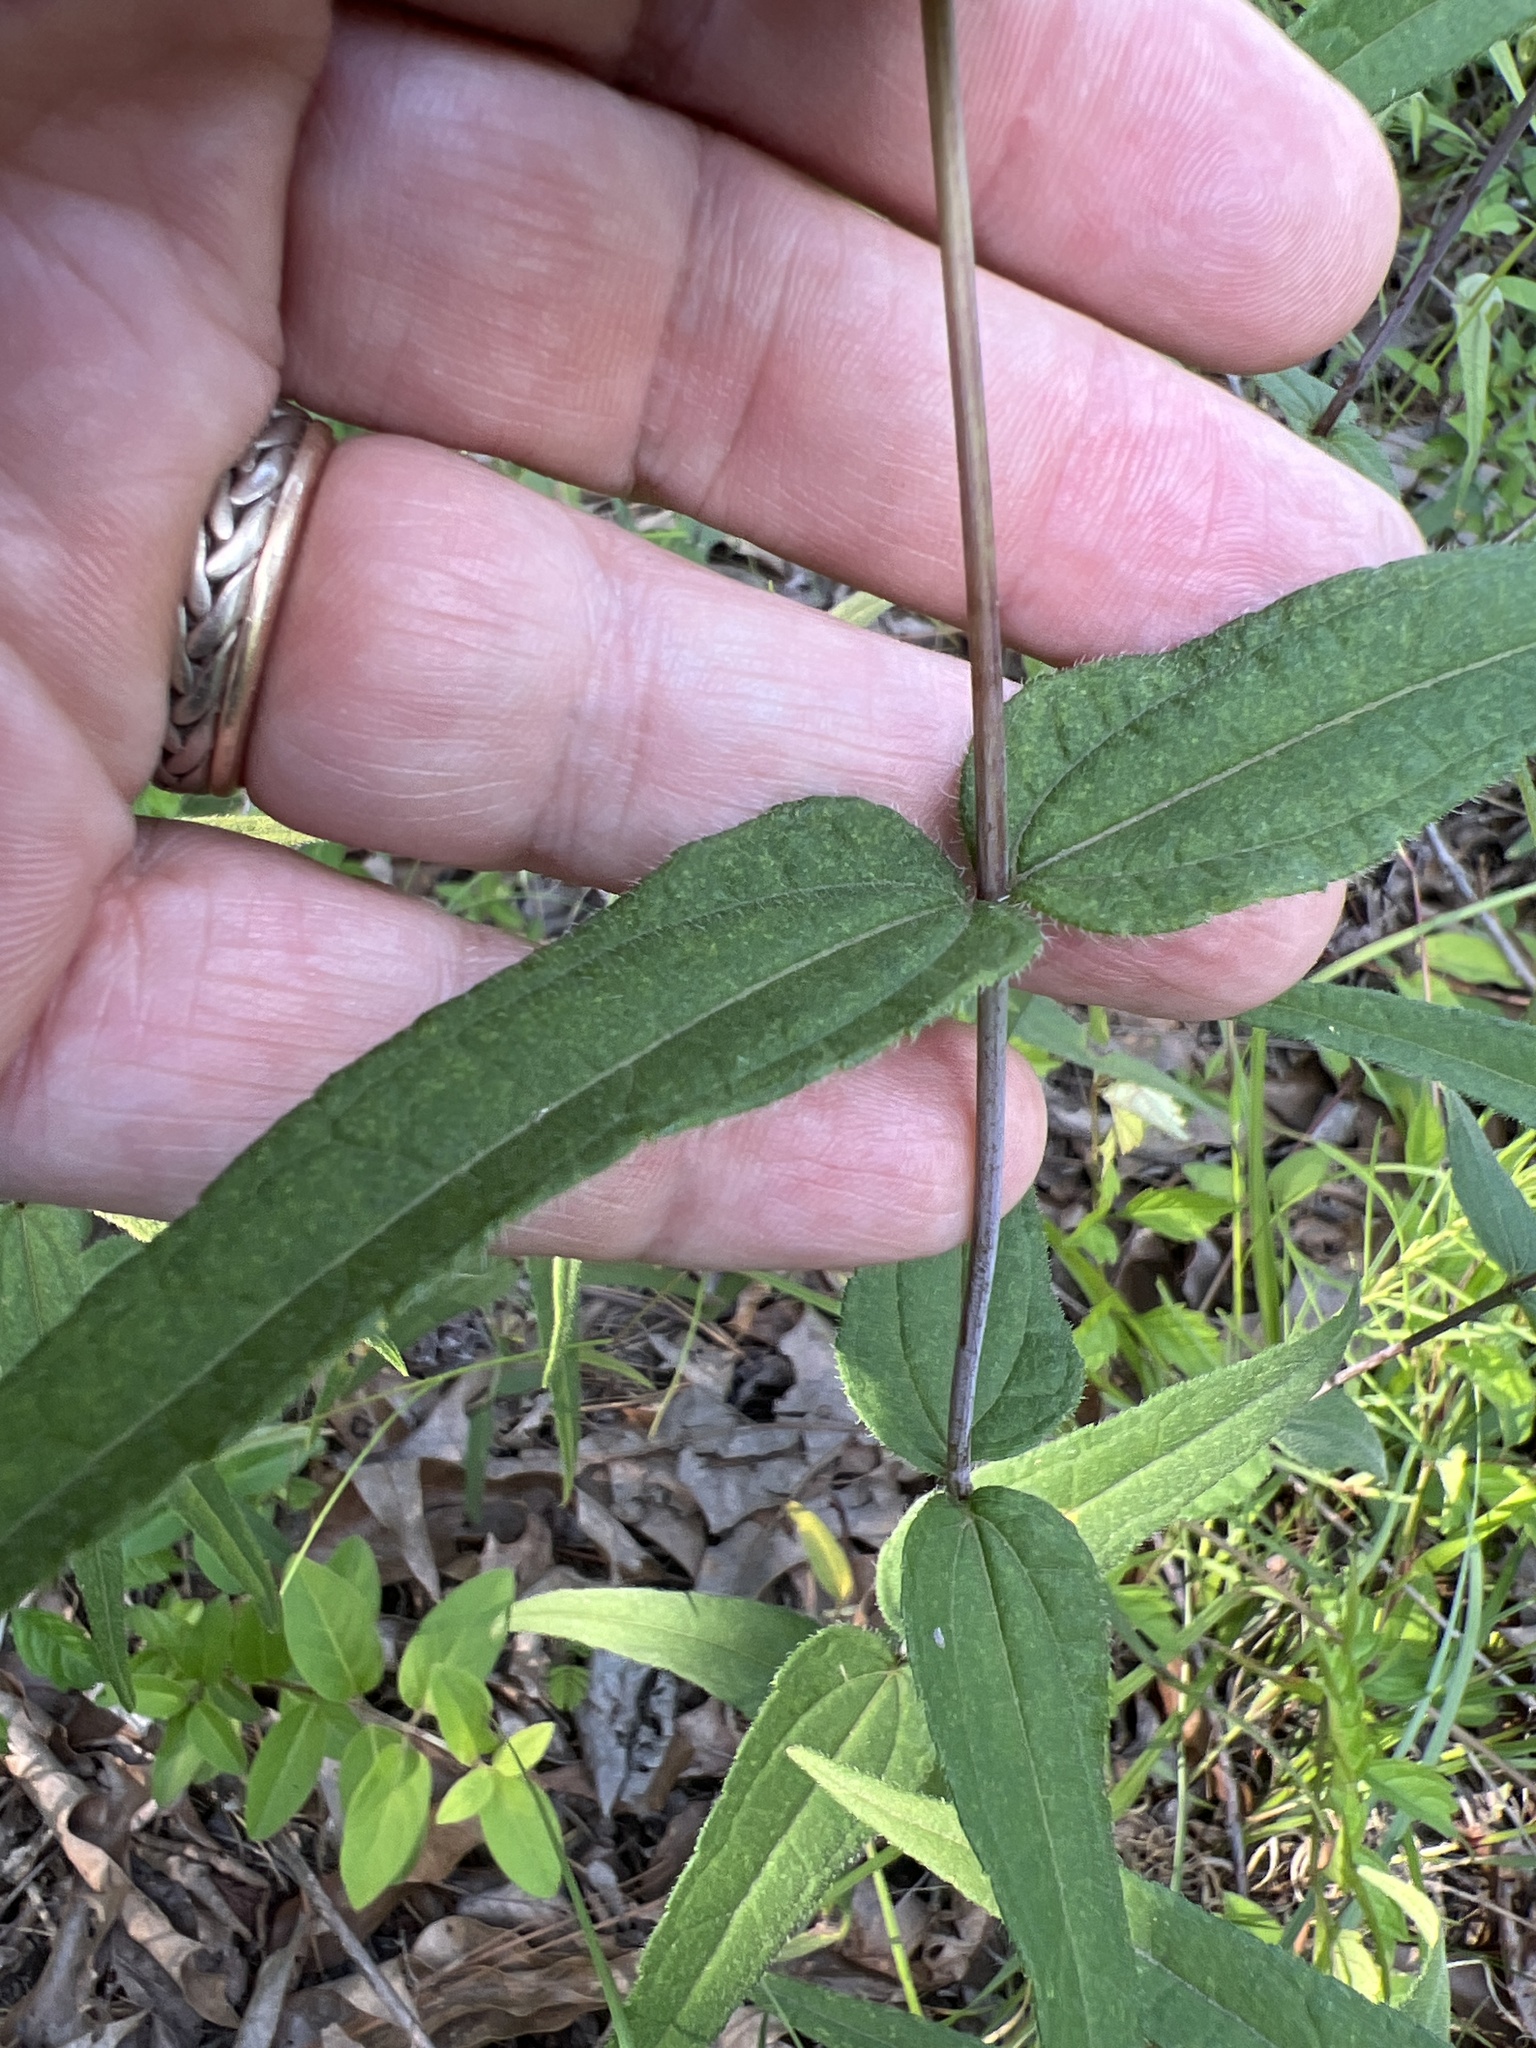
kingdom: Plantae
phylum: Tracheophyta
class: Magnoliopsida
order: Asterales
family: Asteraceae
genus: Helianthus
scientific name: Helianthus divaricatus
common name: Divergent sunflower
